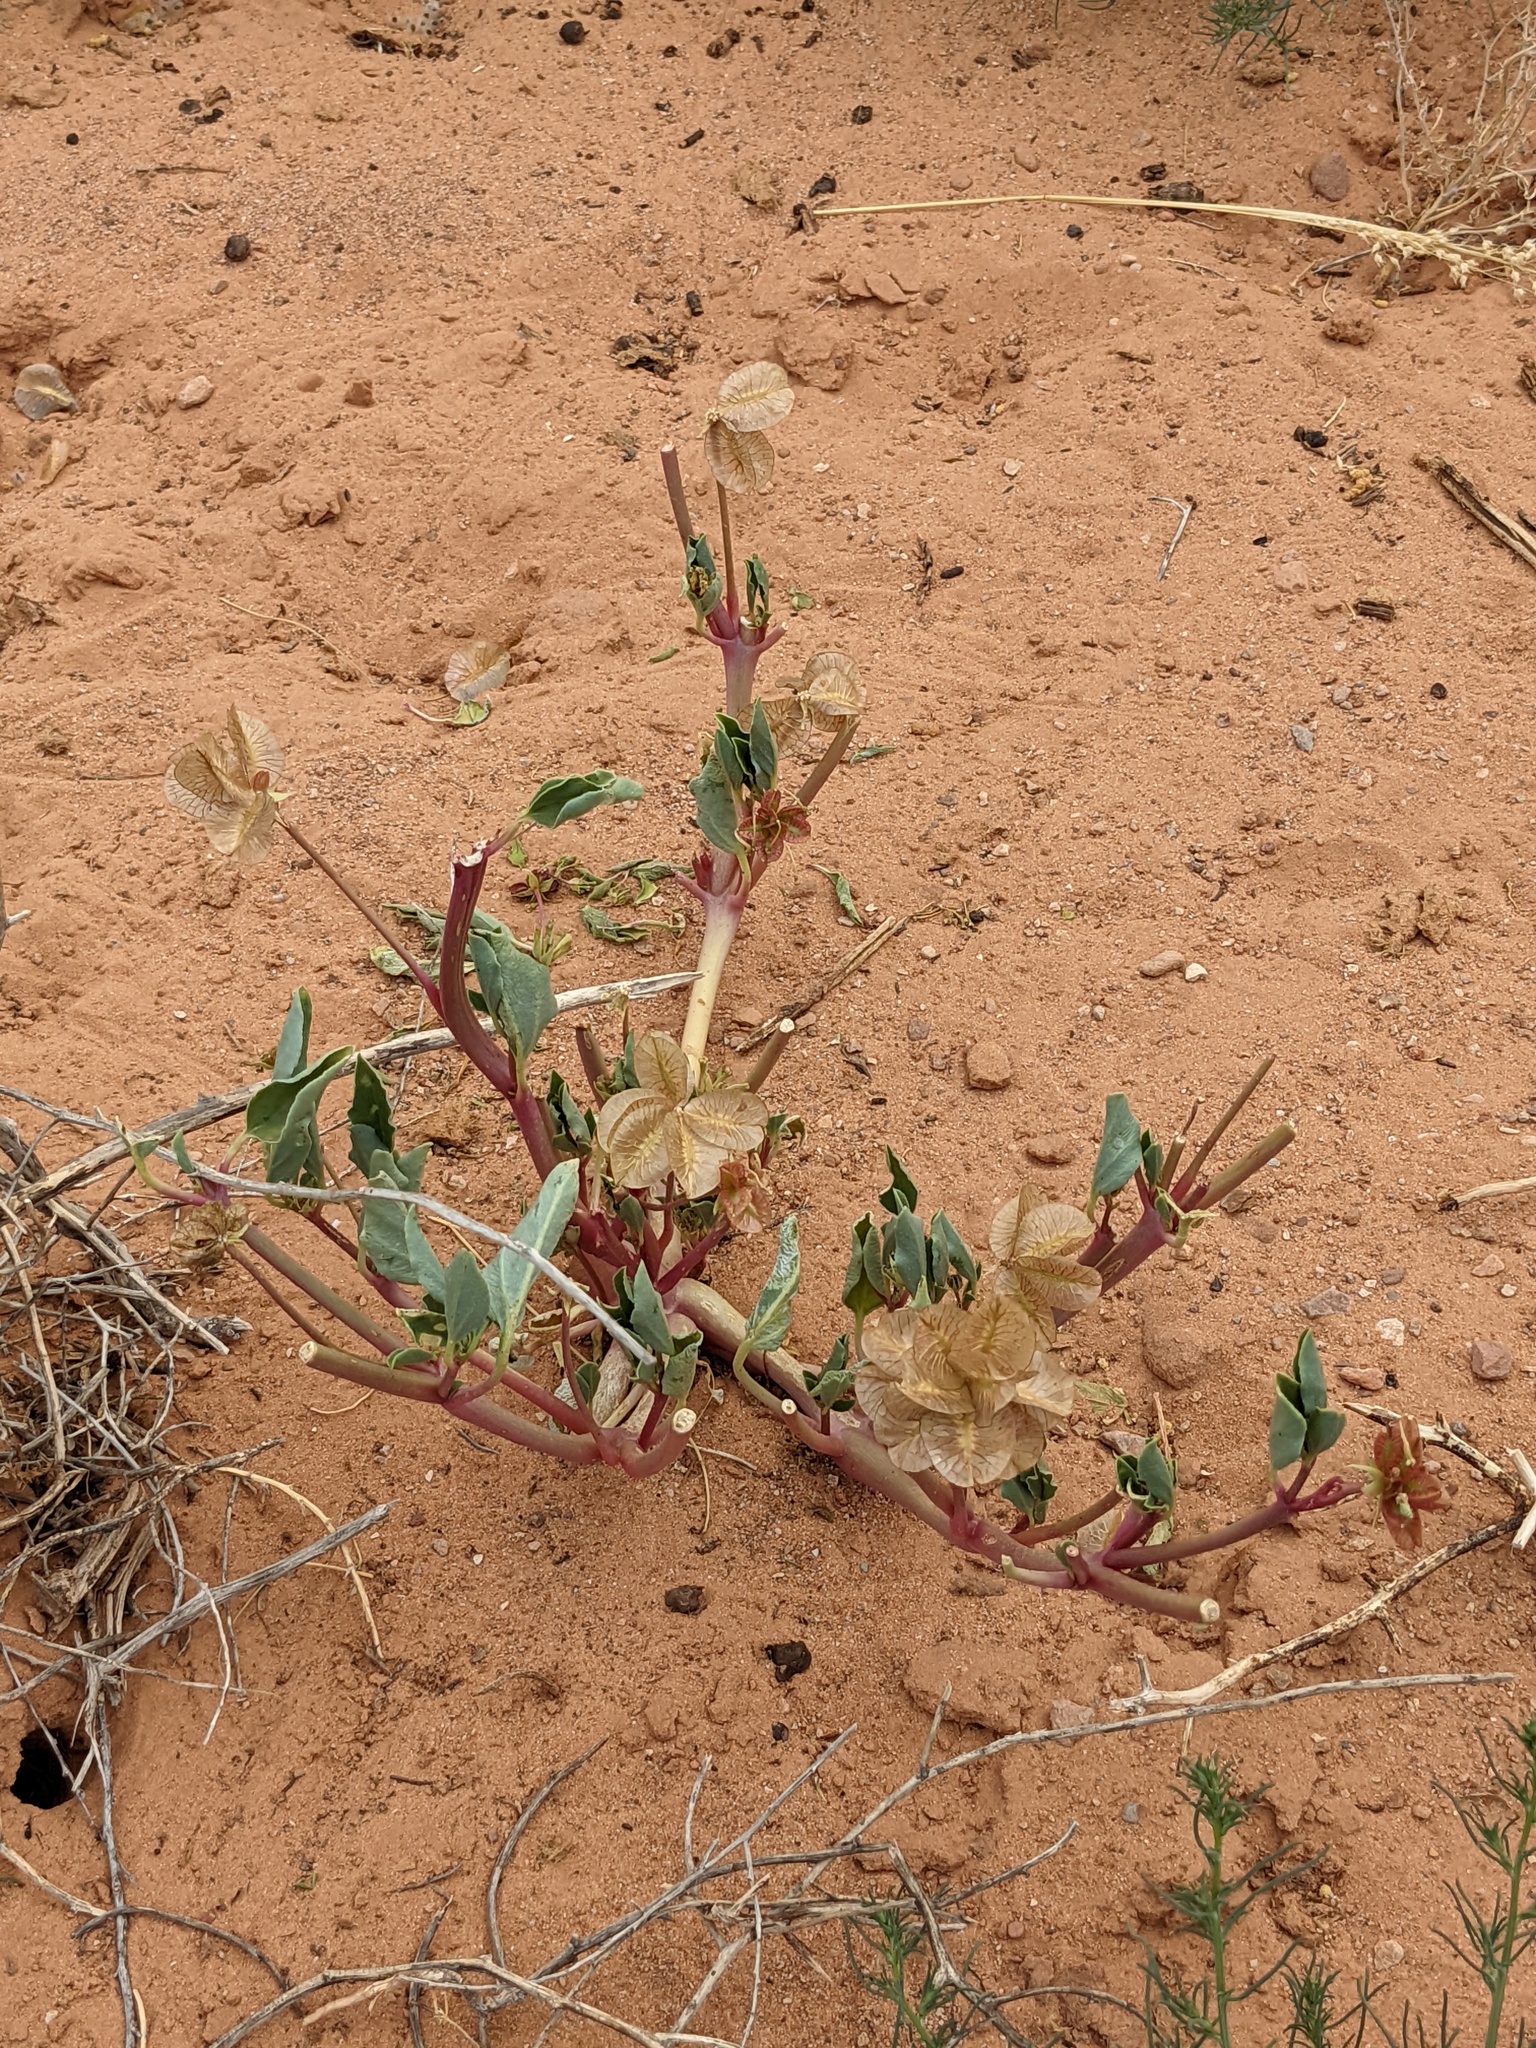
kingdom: Plantae
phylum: Tracheophyta
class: Magnoliopsida
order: Caryophyllales
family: Nyctaginaceae
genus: Tripterocalyx
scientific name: Tripterocalyx carneus
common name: Winged sandpuffs
